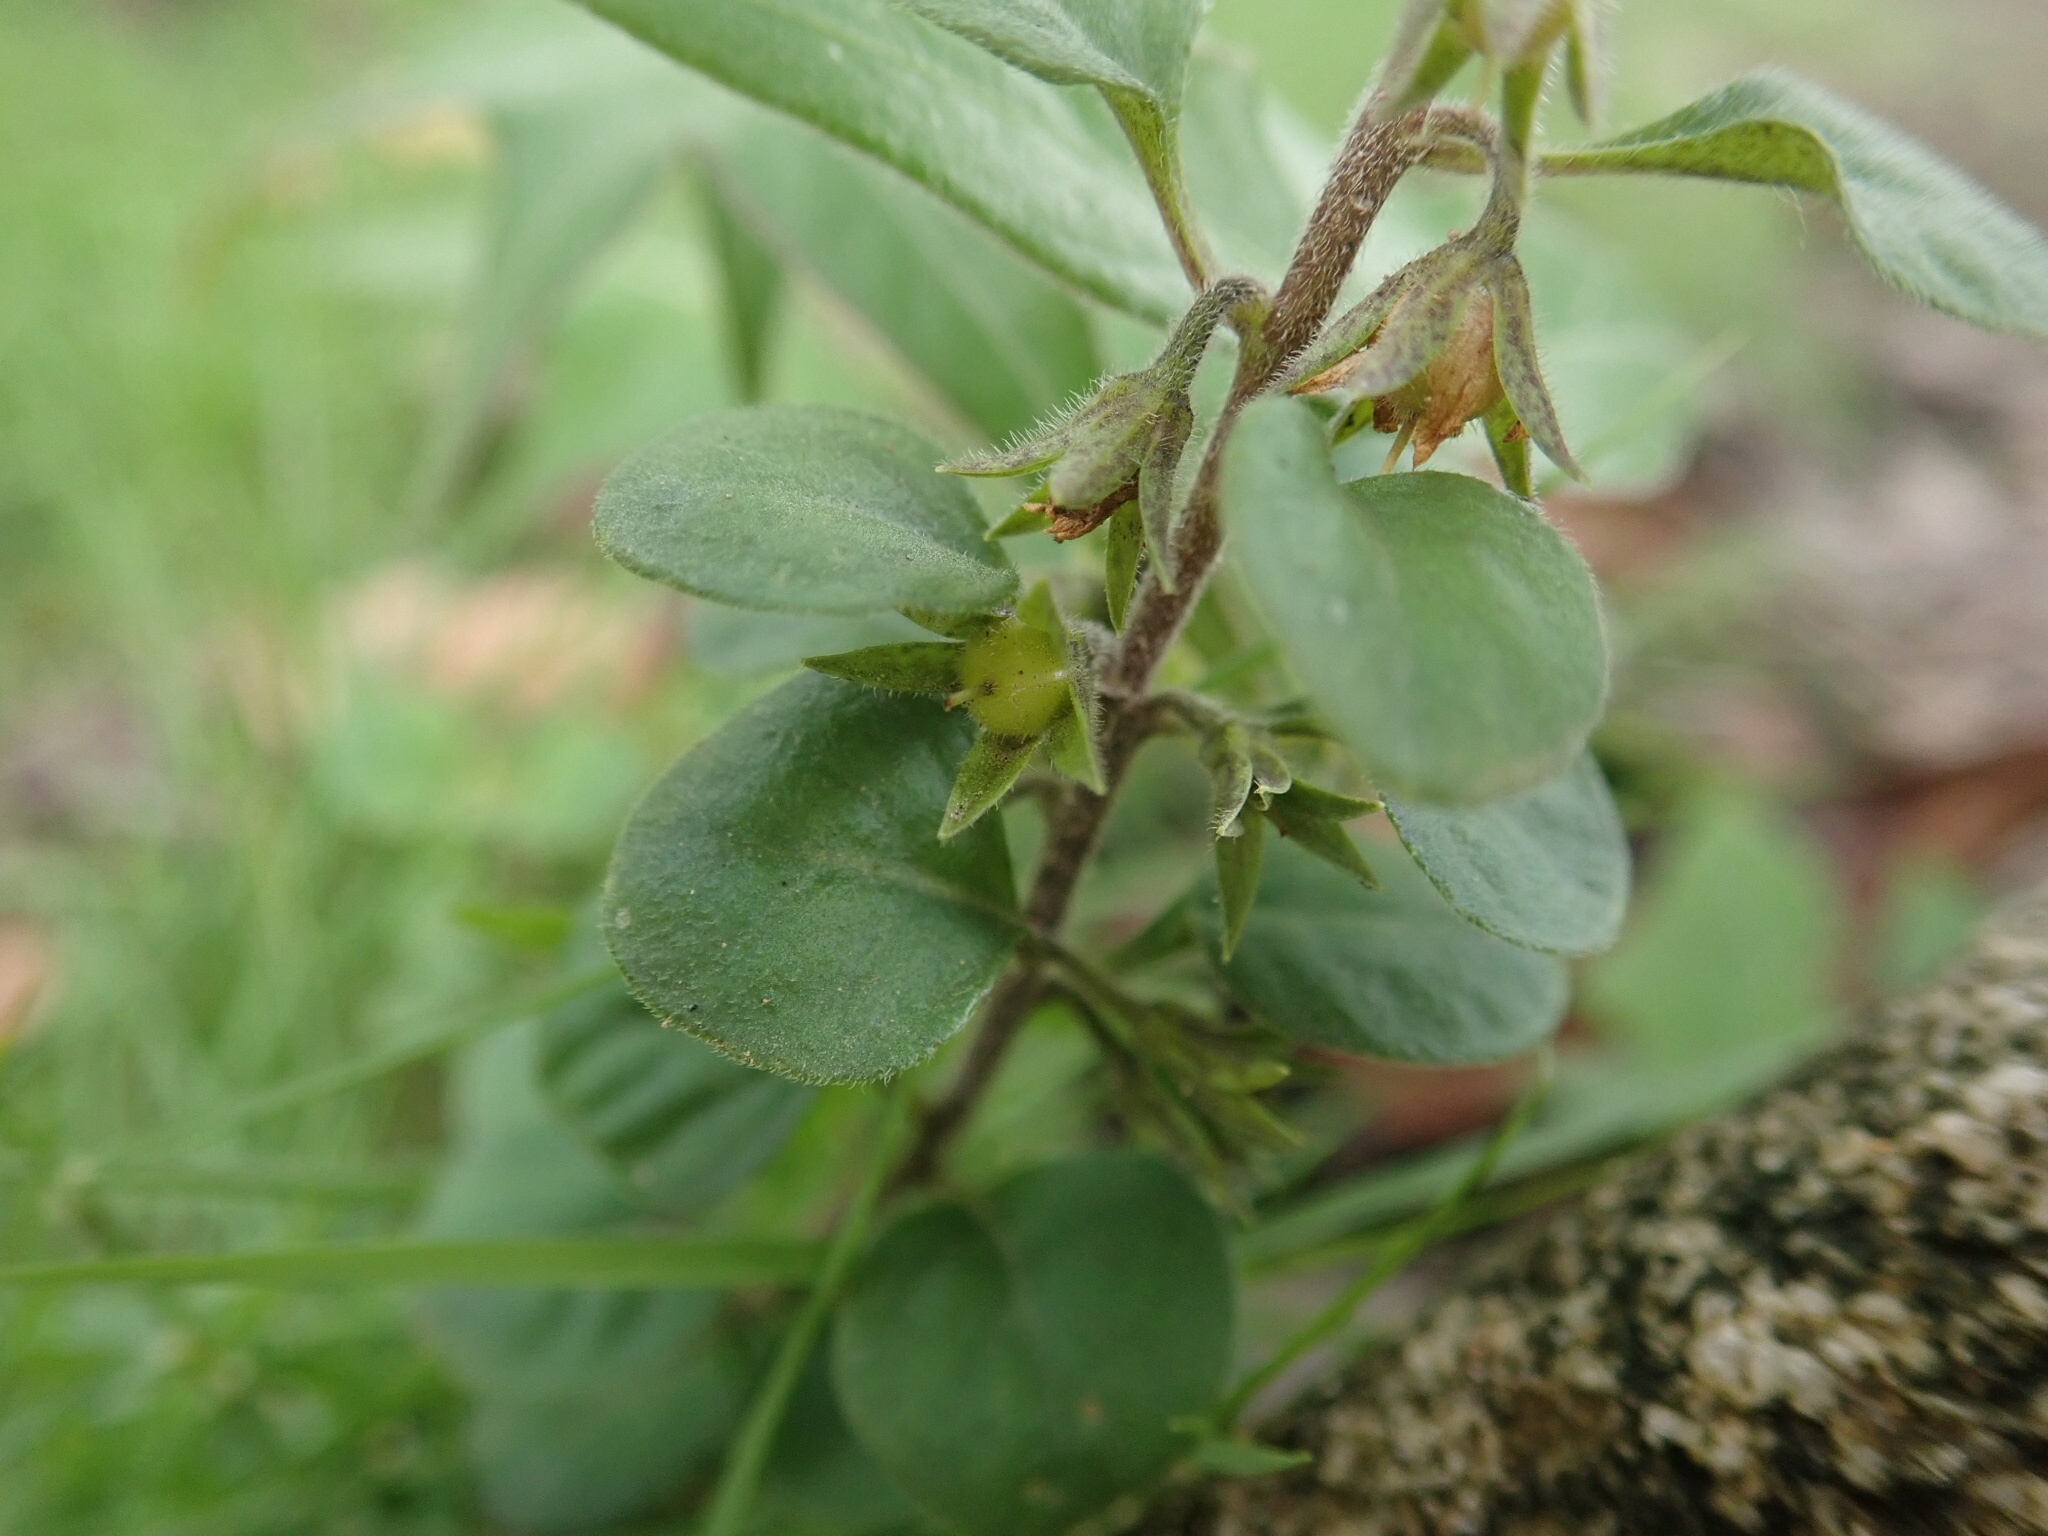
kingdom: Plantae
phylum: Tracheophyta
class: Magnoliopsida
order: Ericales
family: Primulaceae
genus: Lysimachia
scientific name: Lysimachia japonica
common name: Japanese yellow loosestrife
